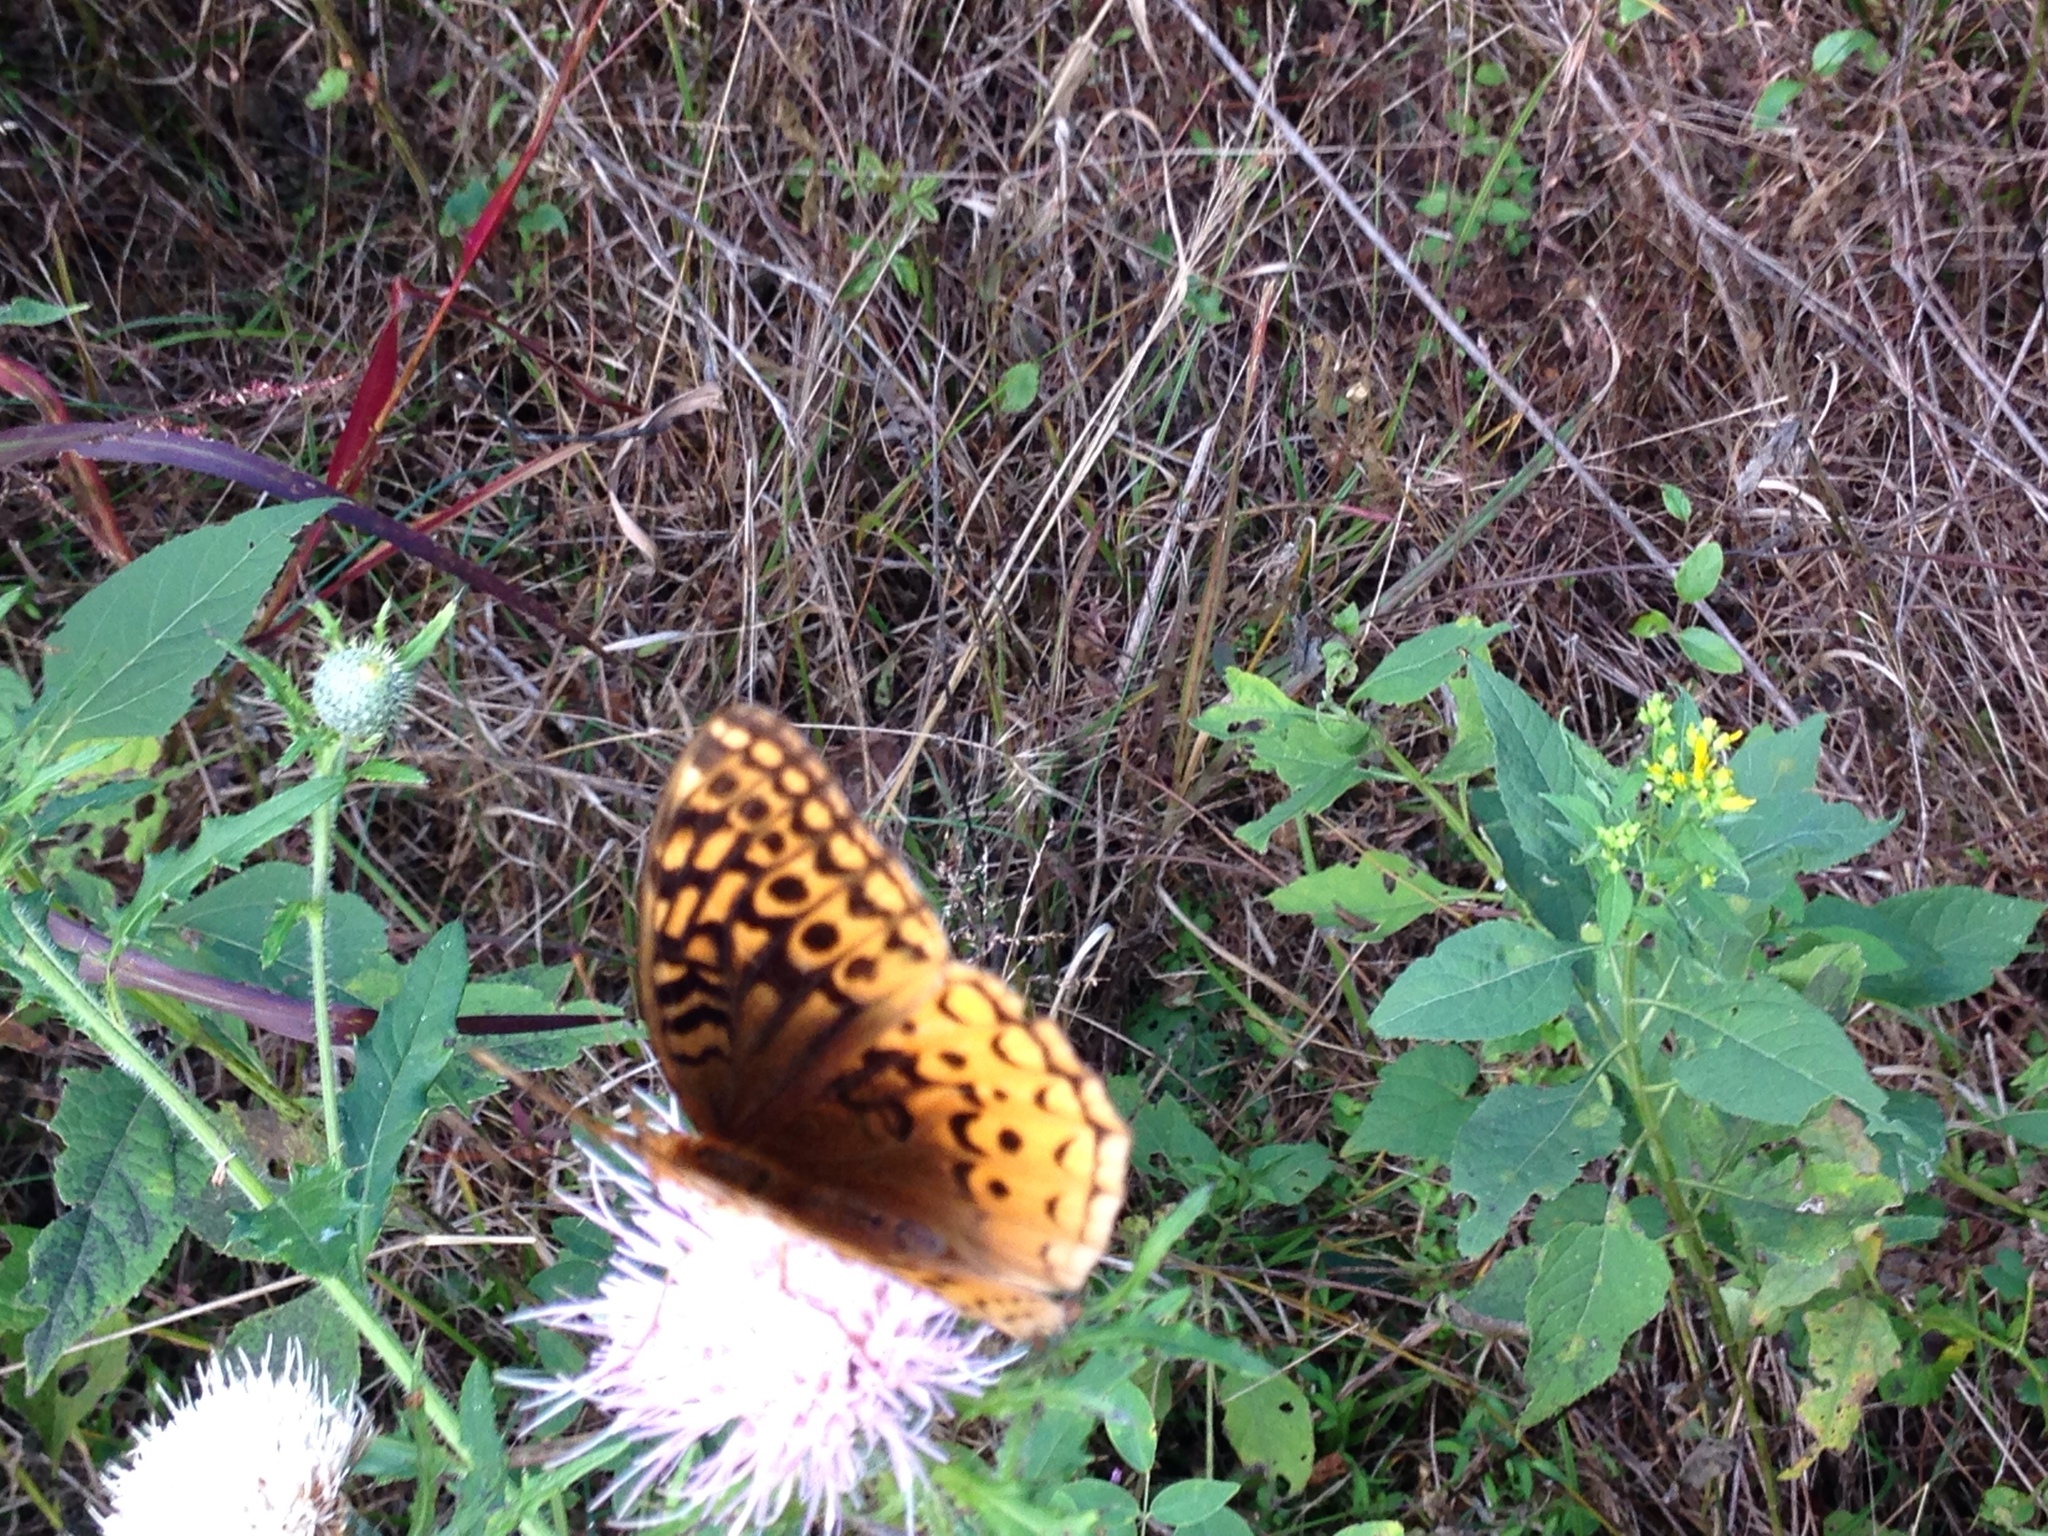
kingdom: Animalia
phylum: Arthropoda
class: Insecta
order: Lepidoptera
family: Nymphalidae
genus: Speyeria
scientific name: Speyeria cybele
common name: Great spangled fritillary
